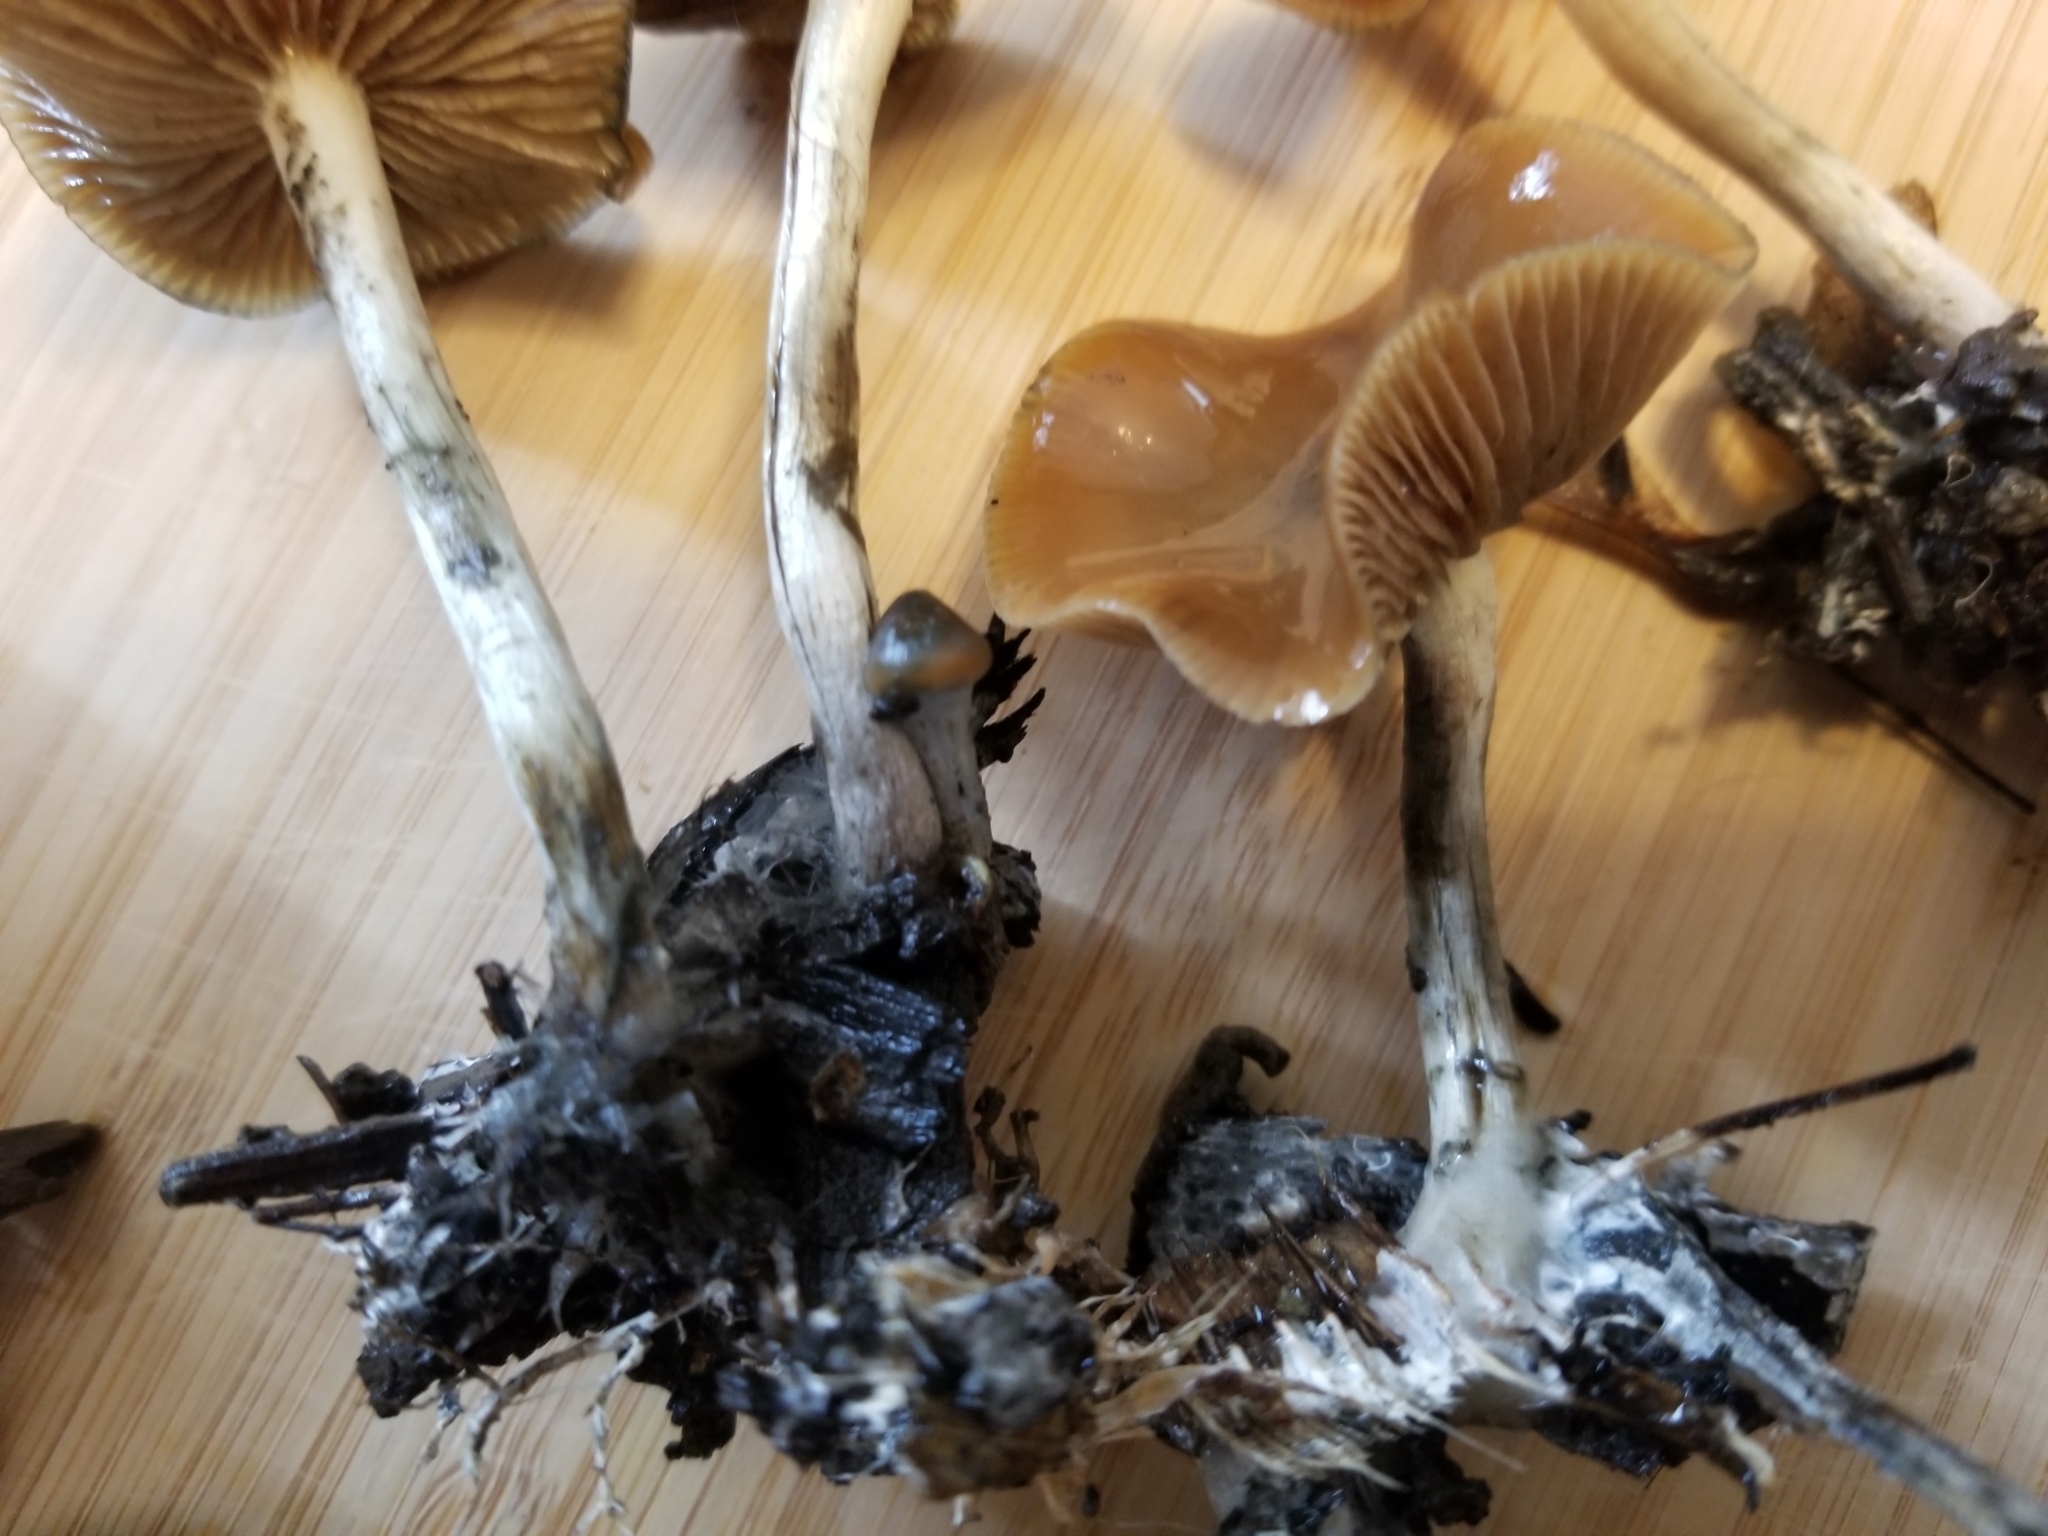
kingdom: Fungi
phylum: Basidiomycota
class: Agaricomycetes
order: Agaricales
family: Hymenogastraceae
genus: Psilocybe
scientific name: Psilocybe cyanescens
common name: Blueleg brownie
